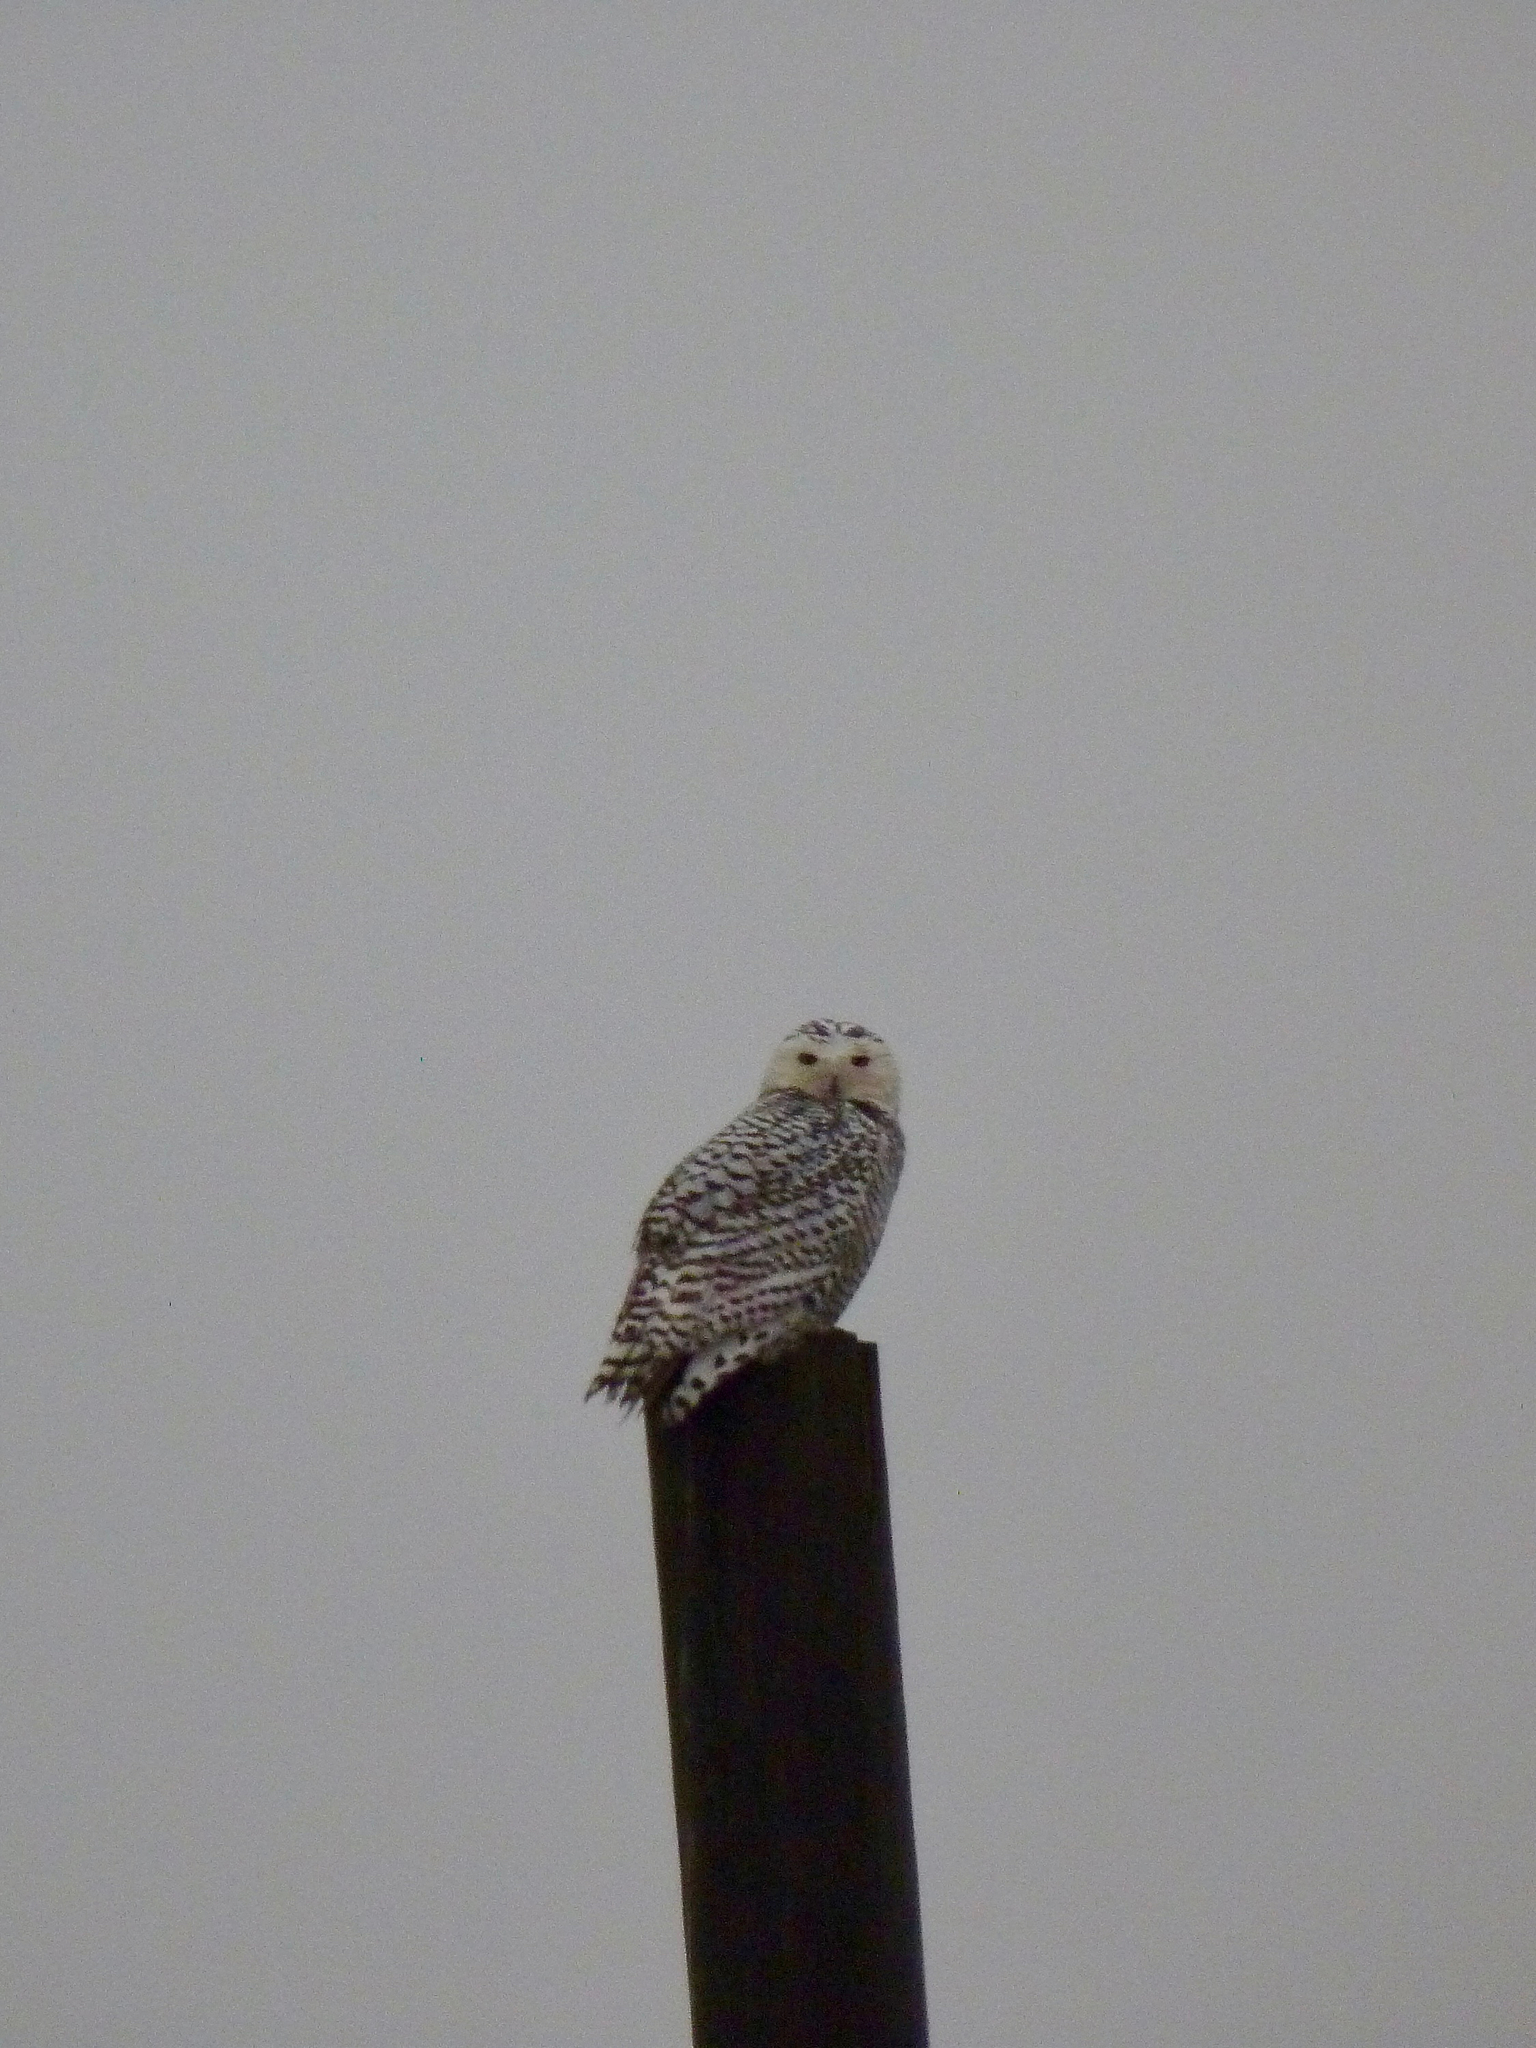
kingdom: Animalia
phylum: Chordata
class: Aves
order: Strigiformes
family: Strigidae
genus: Bubo
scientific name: Bubo scandiacus
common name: Snowy owl
